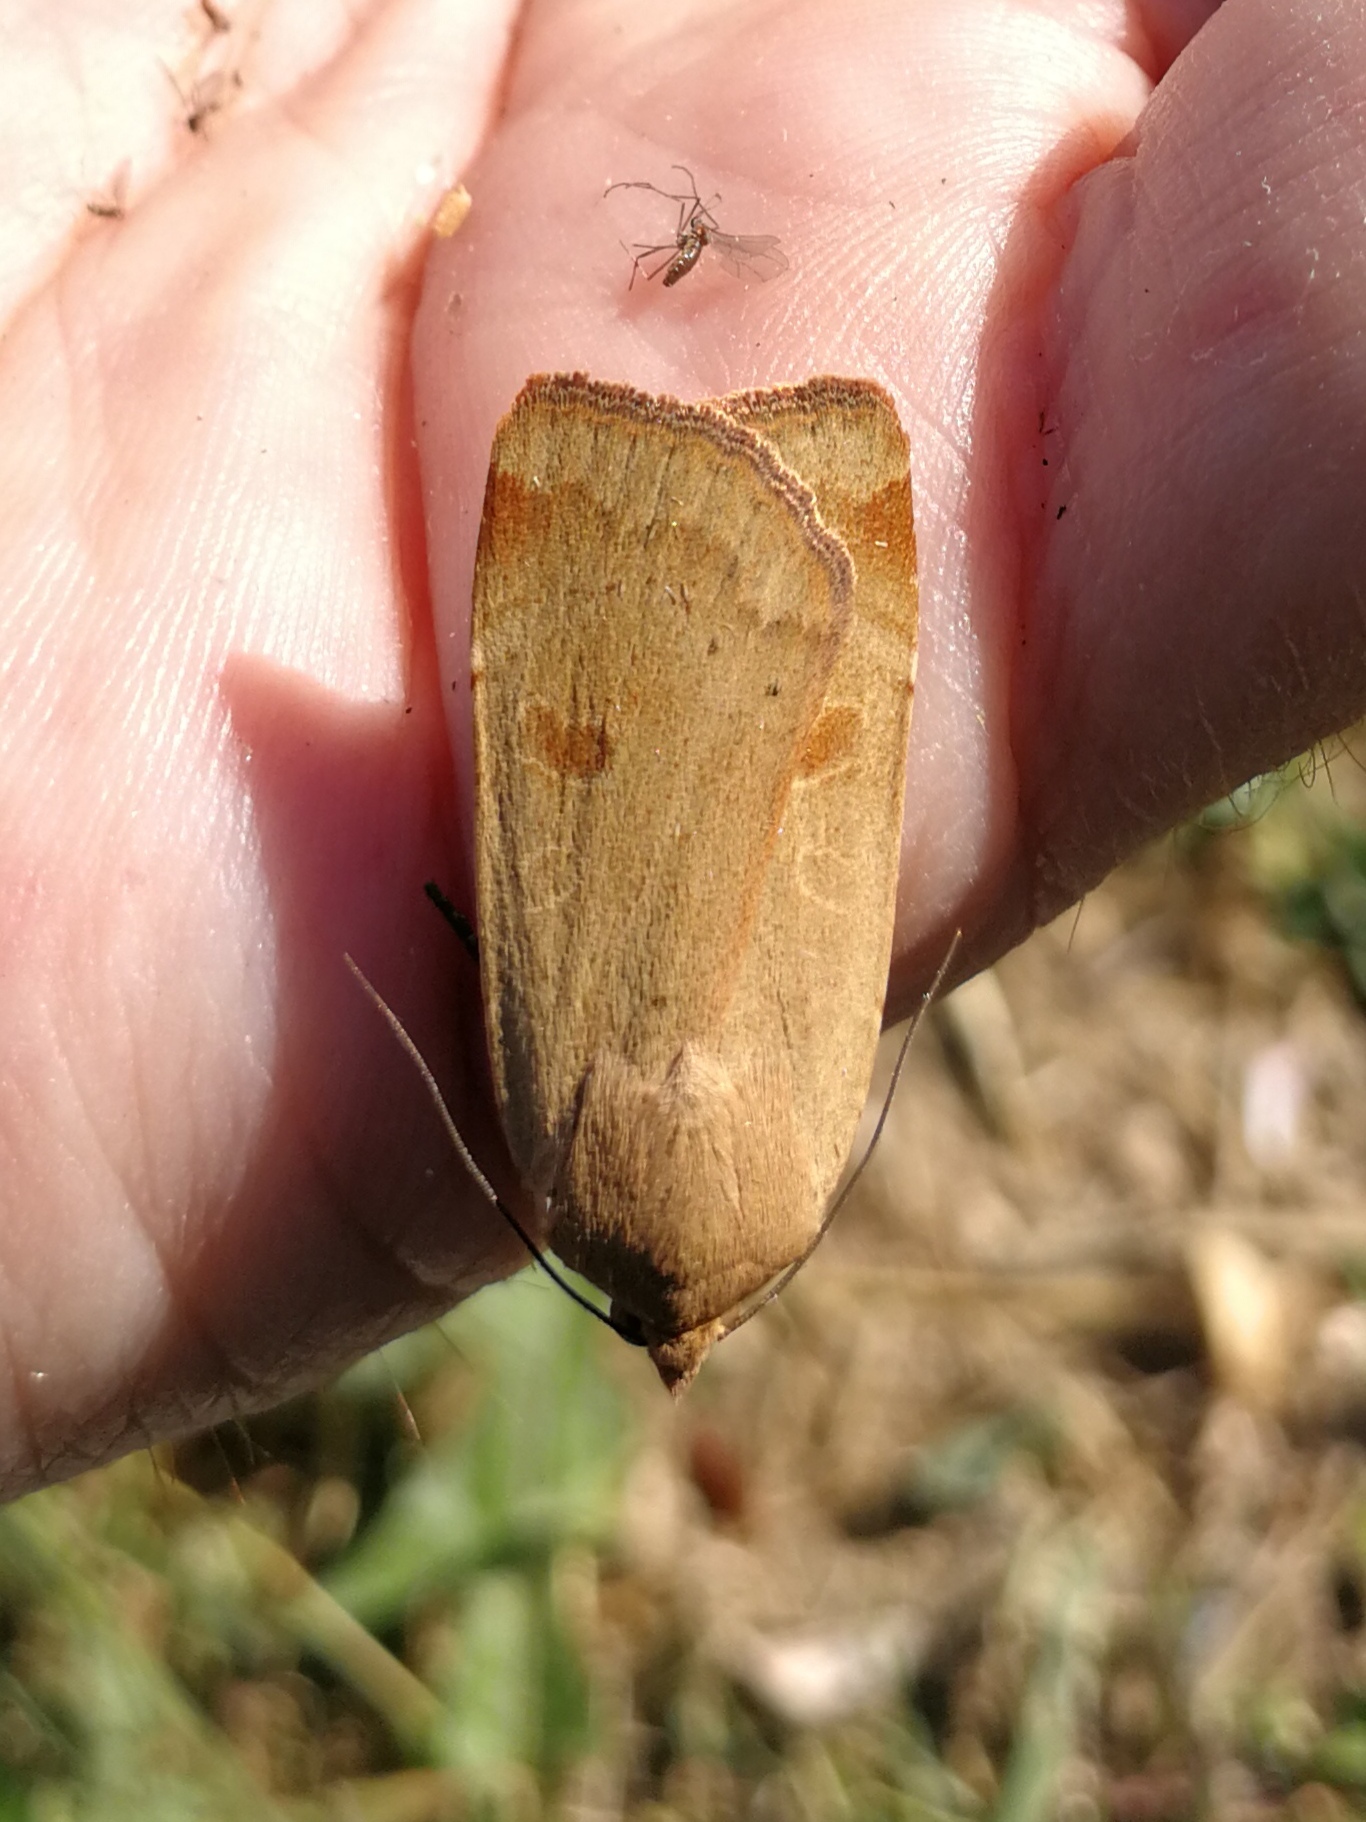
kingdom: Animalia
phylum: Arthropoda
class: Insecta
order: Lepidoptera
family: Noctuidae
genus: Noctua
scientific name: Noctua comes
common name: Lesser yellow underwing
